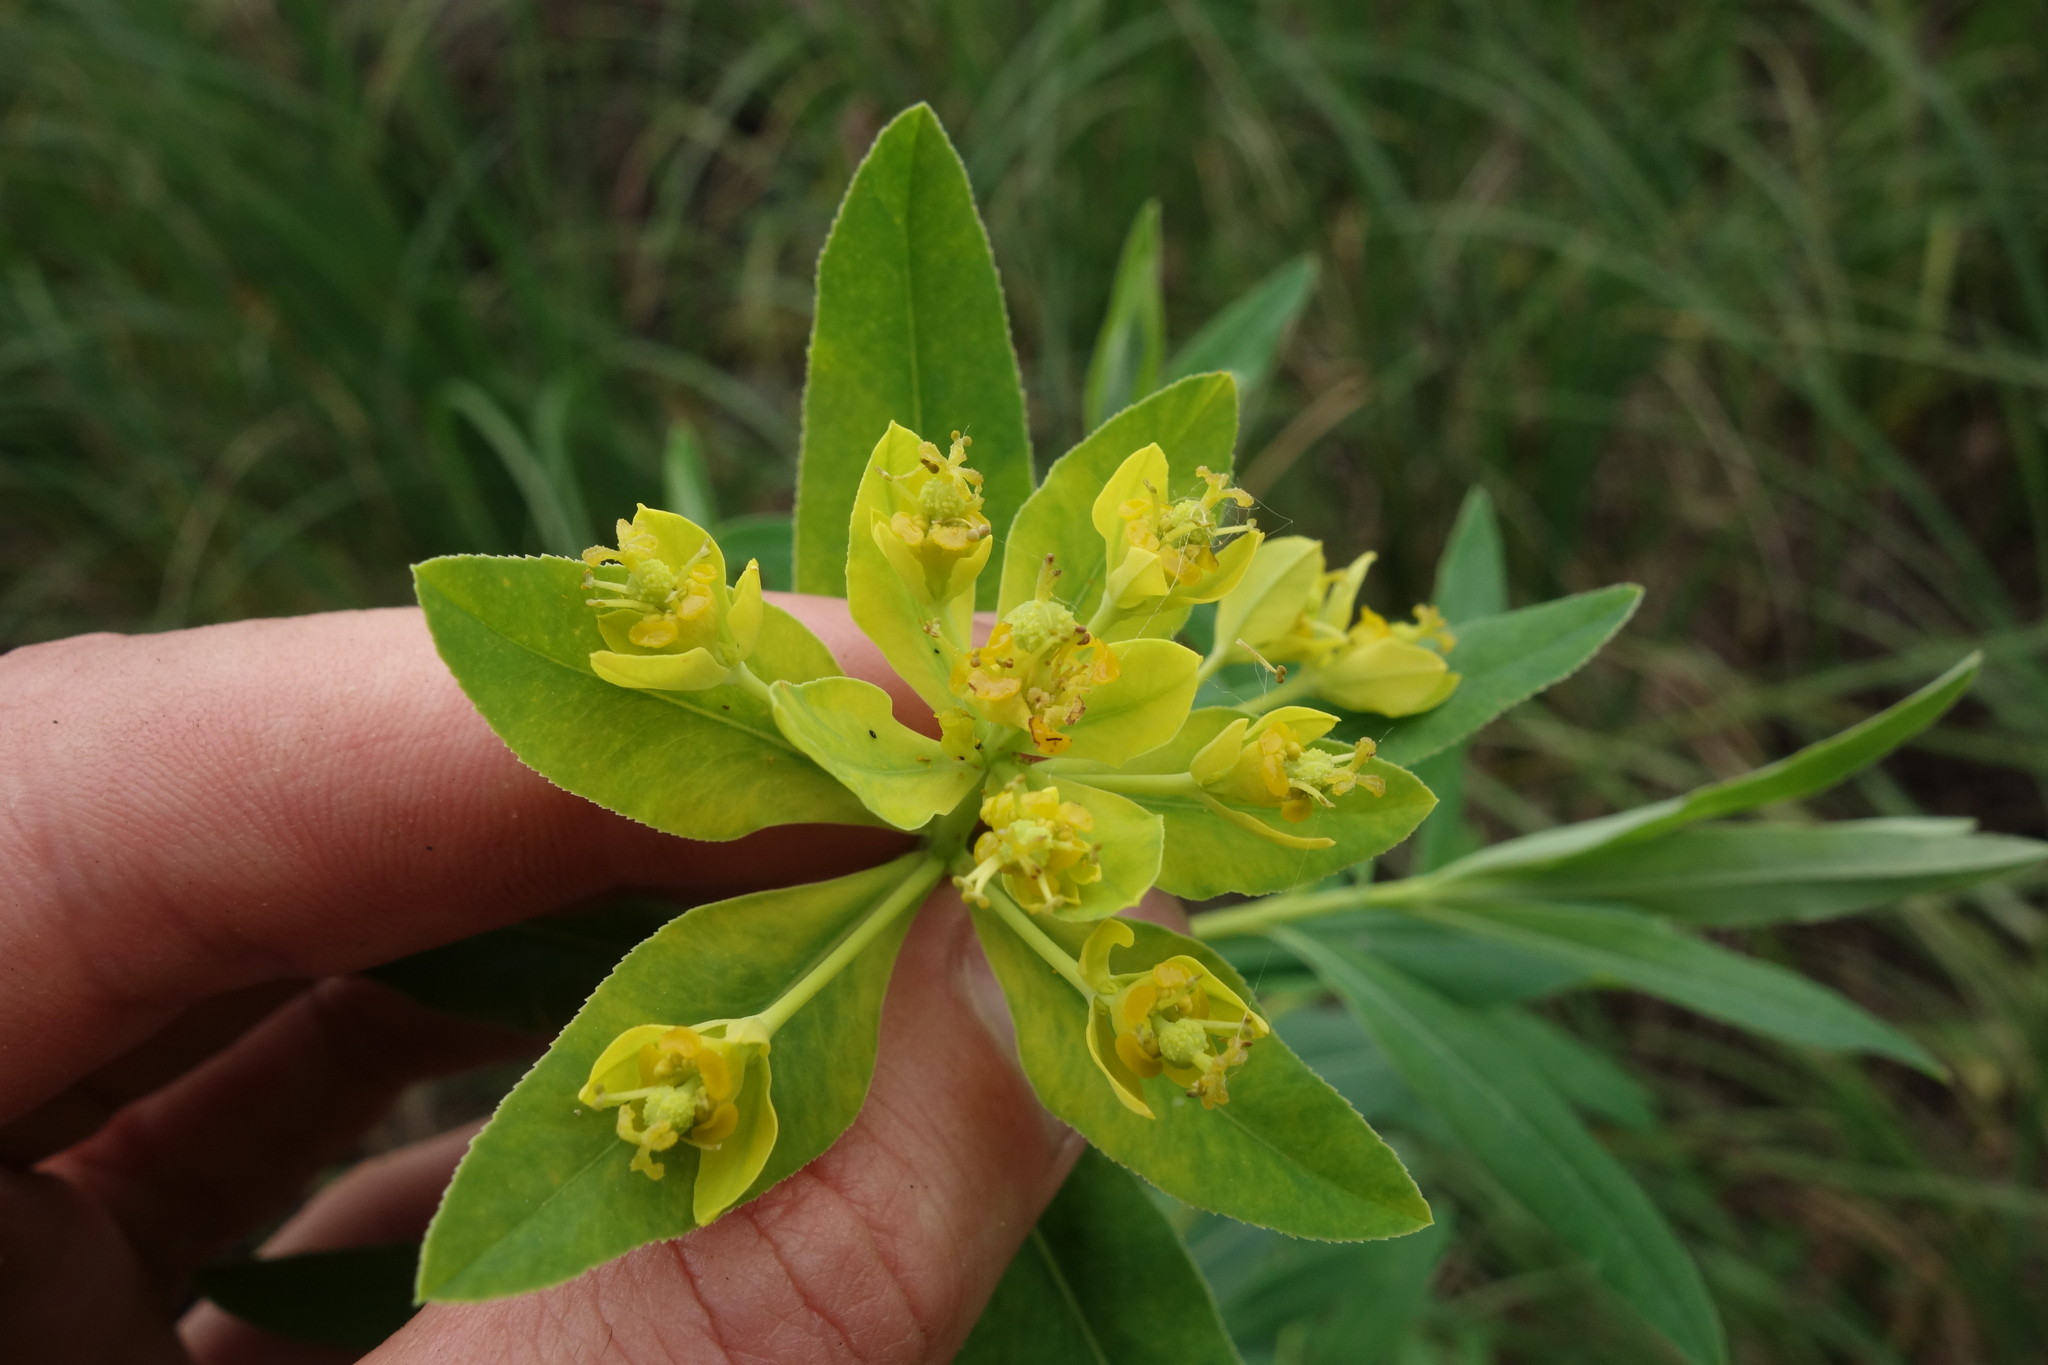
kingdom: Plantae
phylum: Tracheophyta
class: Magnoliopsida
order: Malpighiales
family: Euphorbiaceae
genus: Euphorbia
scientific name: Euphorbia palustris
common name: Marsh spurge
